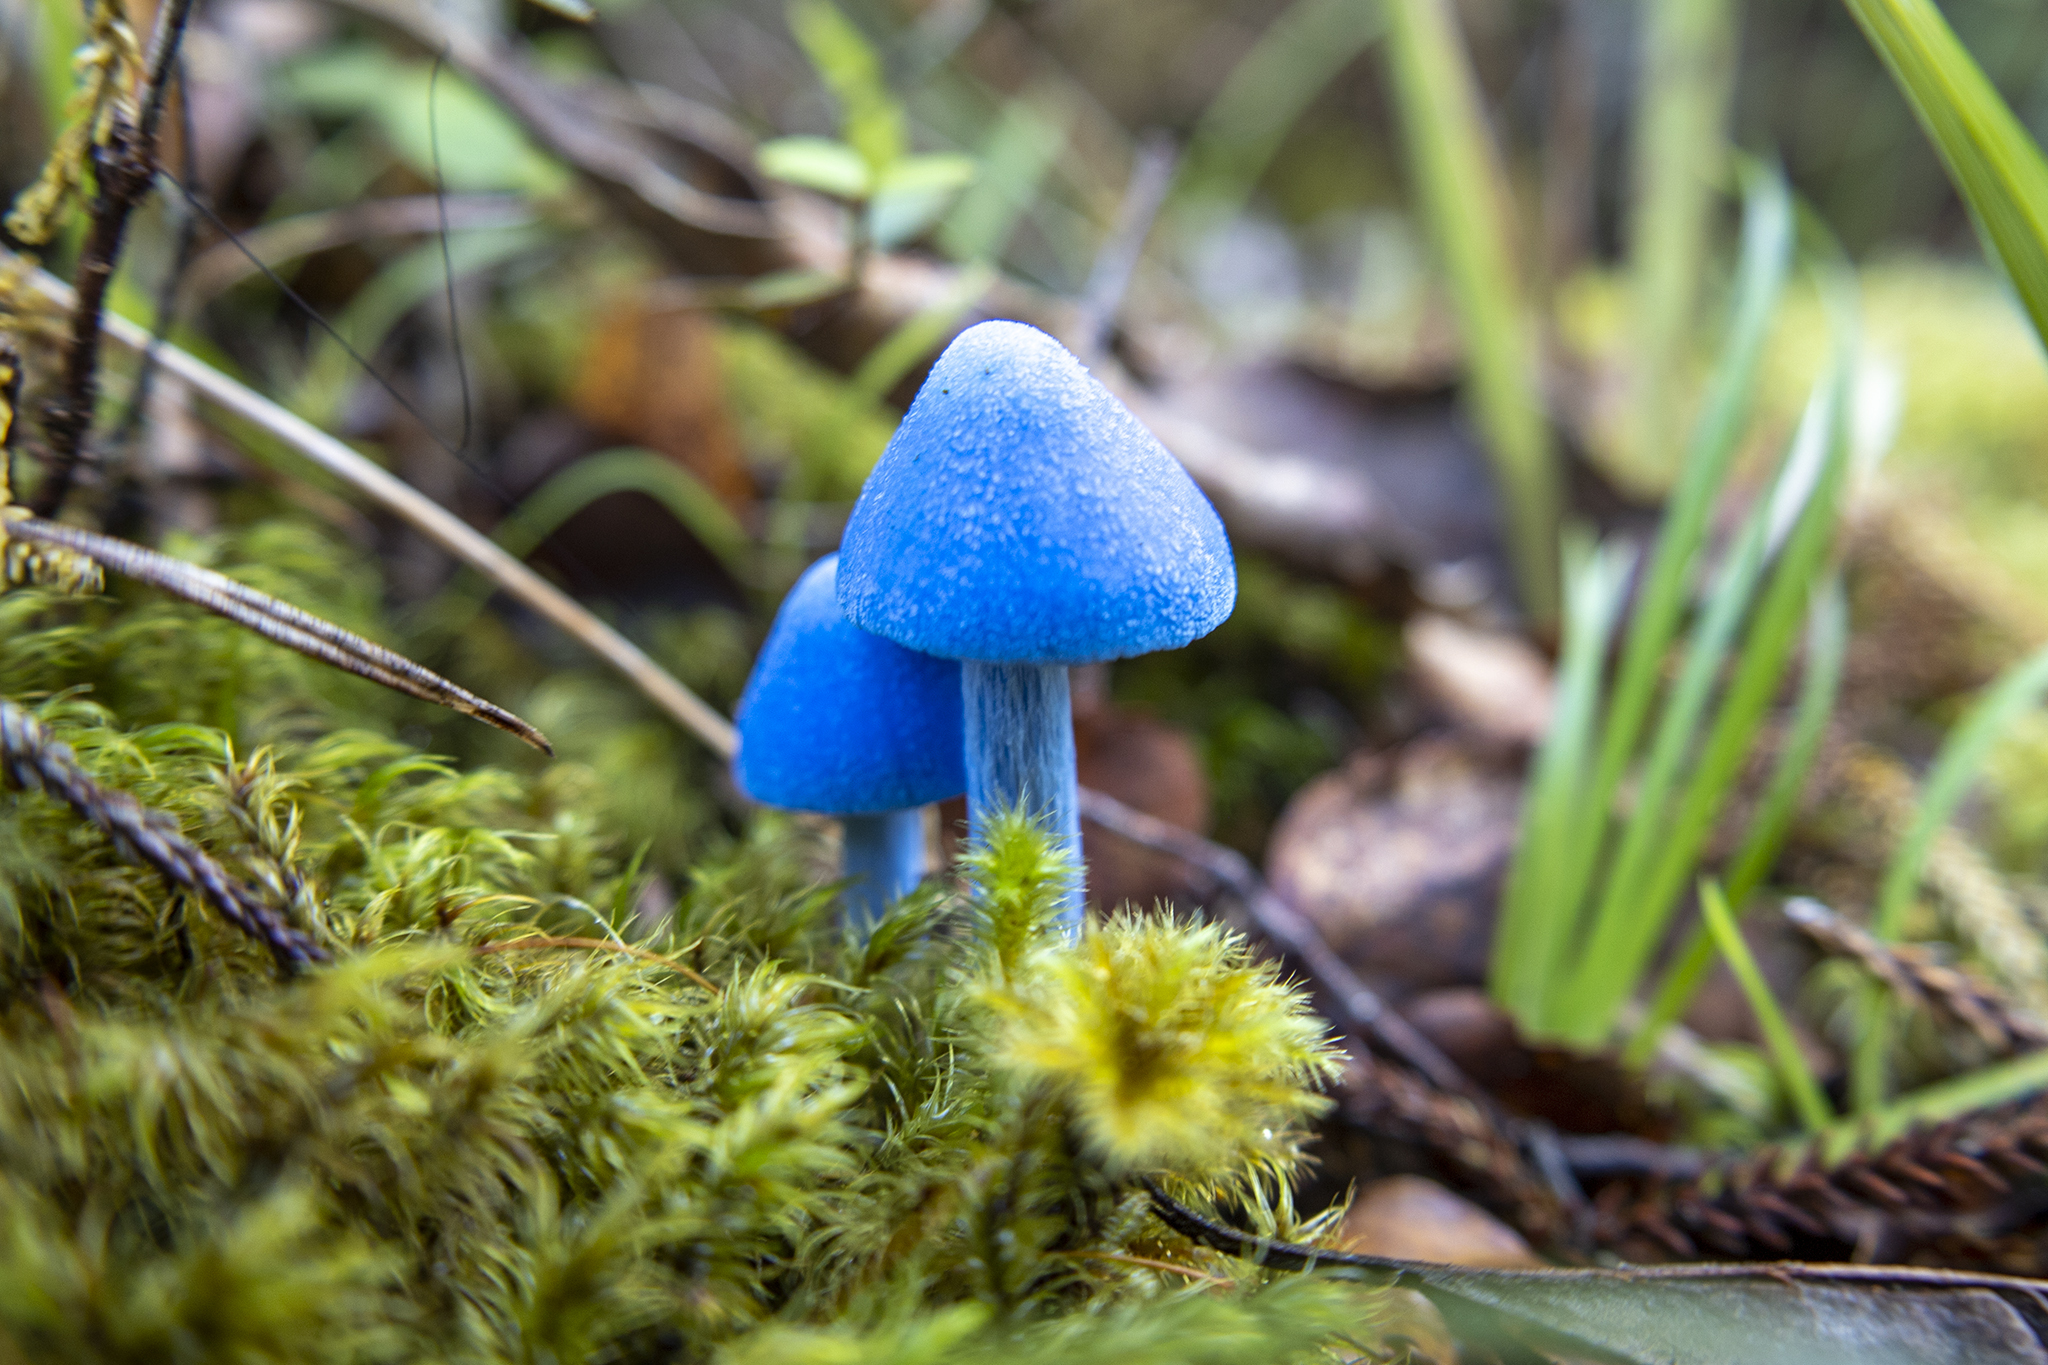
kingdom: Fungi
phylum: Basidiomycota
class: Agaricomycetes
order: Agaricales
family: Entolomataceae
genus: Entoloma
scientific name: Entoloma hochstetteri
